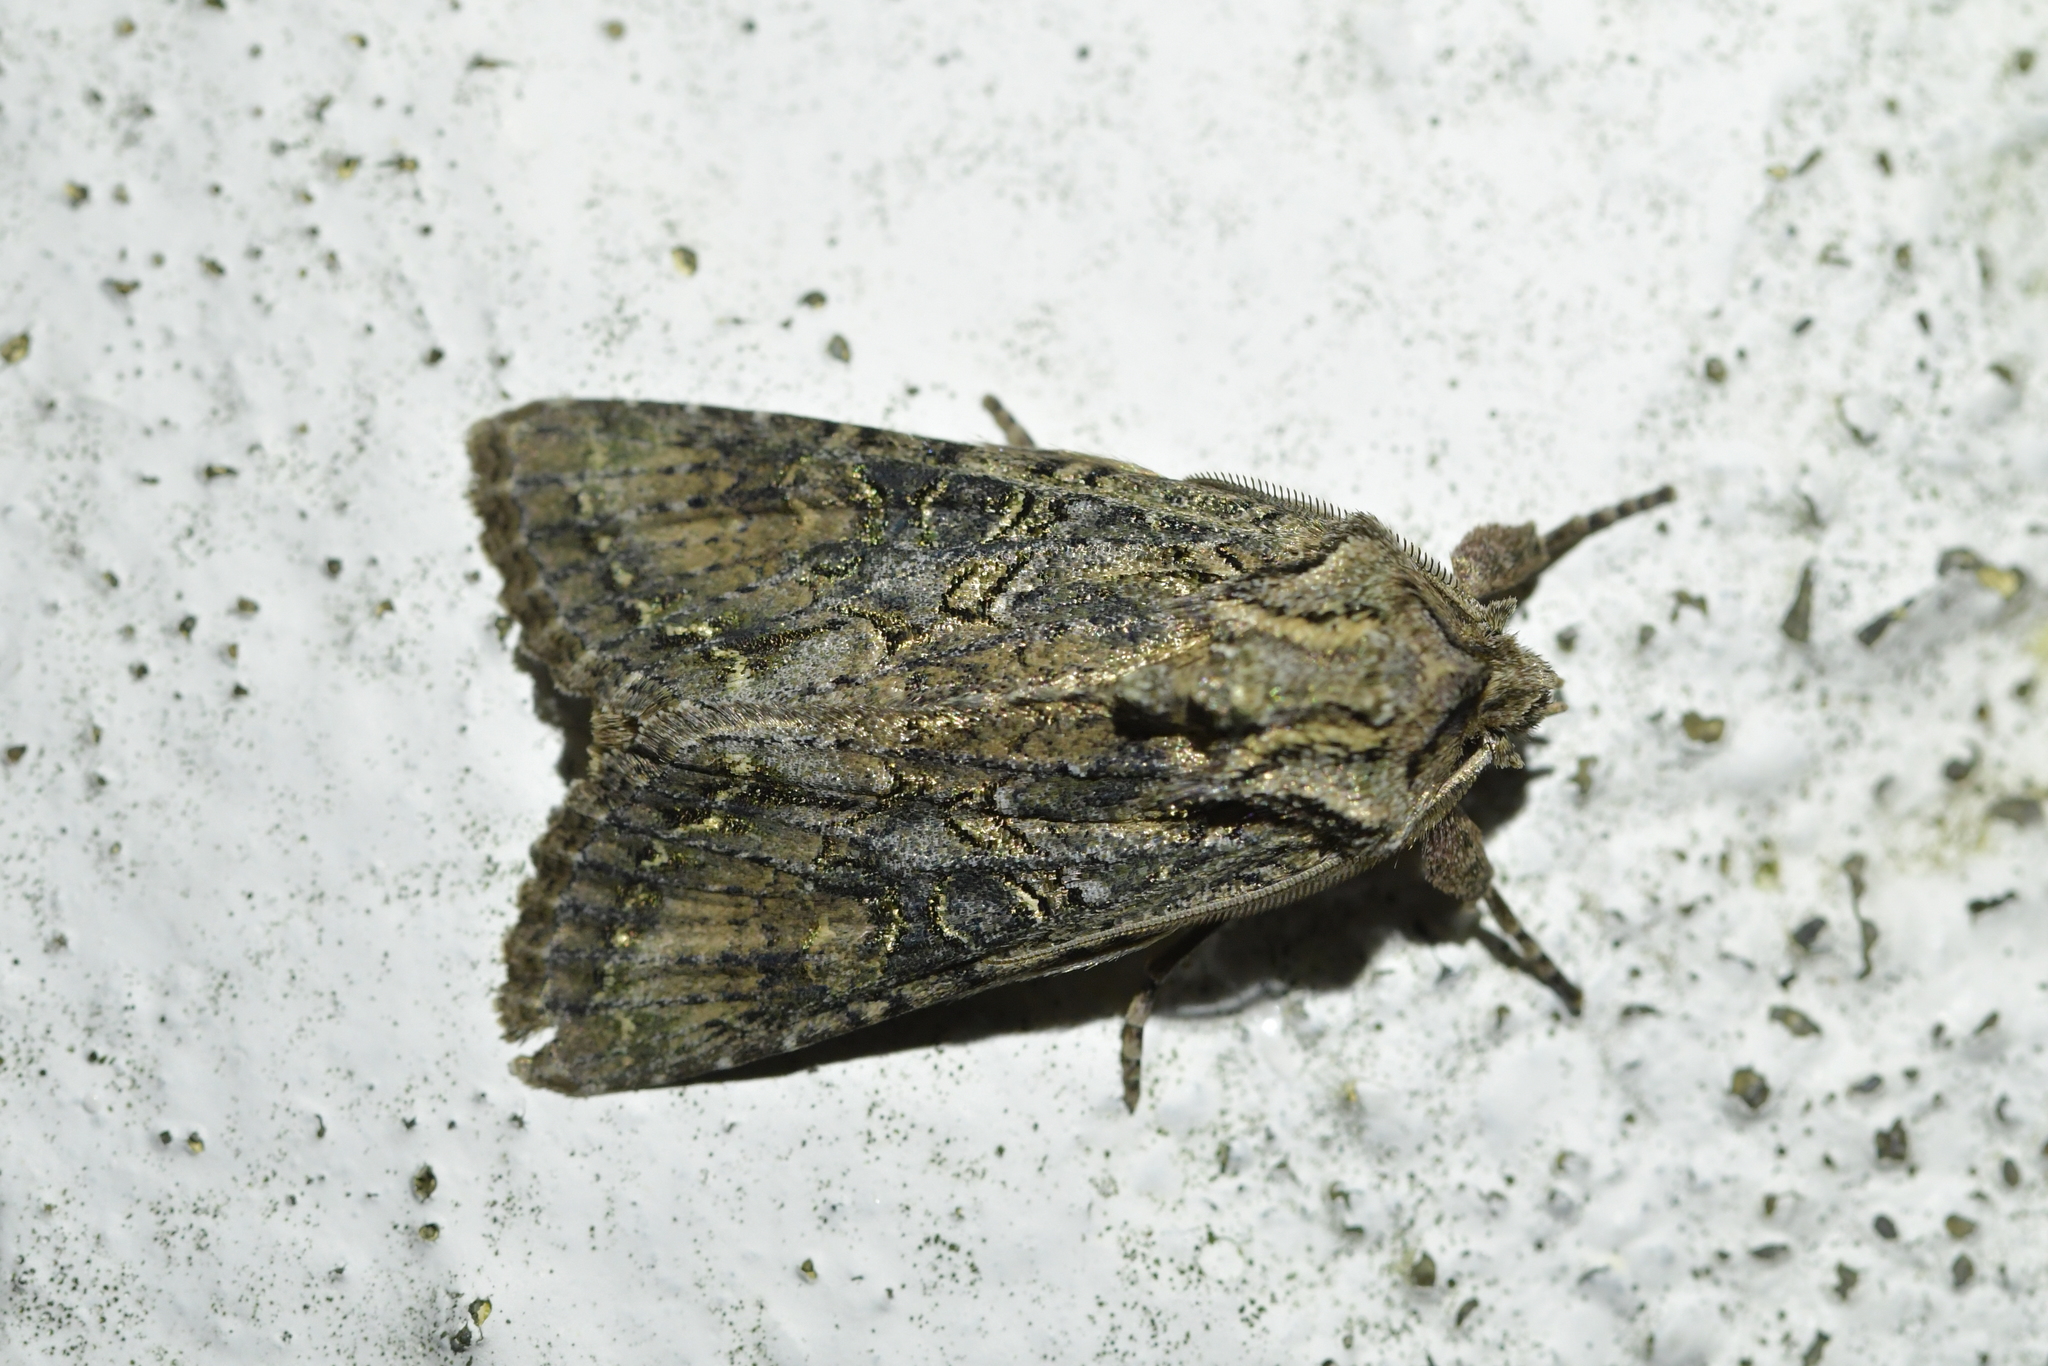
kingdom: Animalia
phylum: Arthropoda
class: Insecta
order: Lepidoptera
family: Noctuidae
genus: Ichneutica
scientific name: Ichneutica mutans
